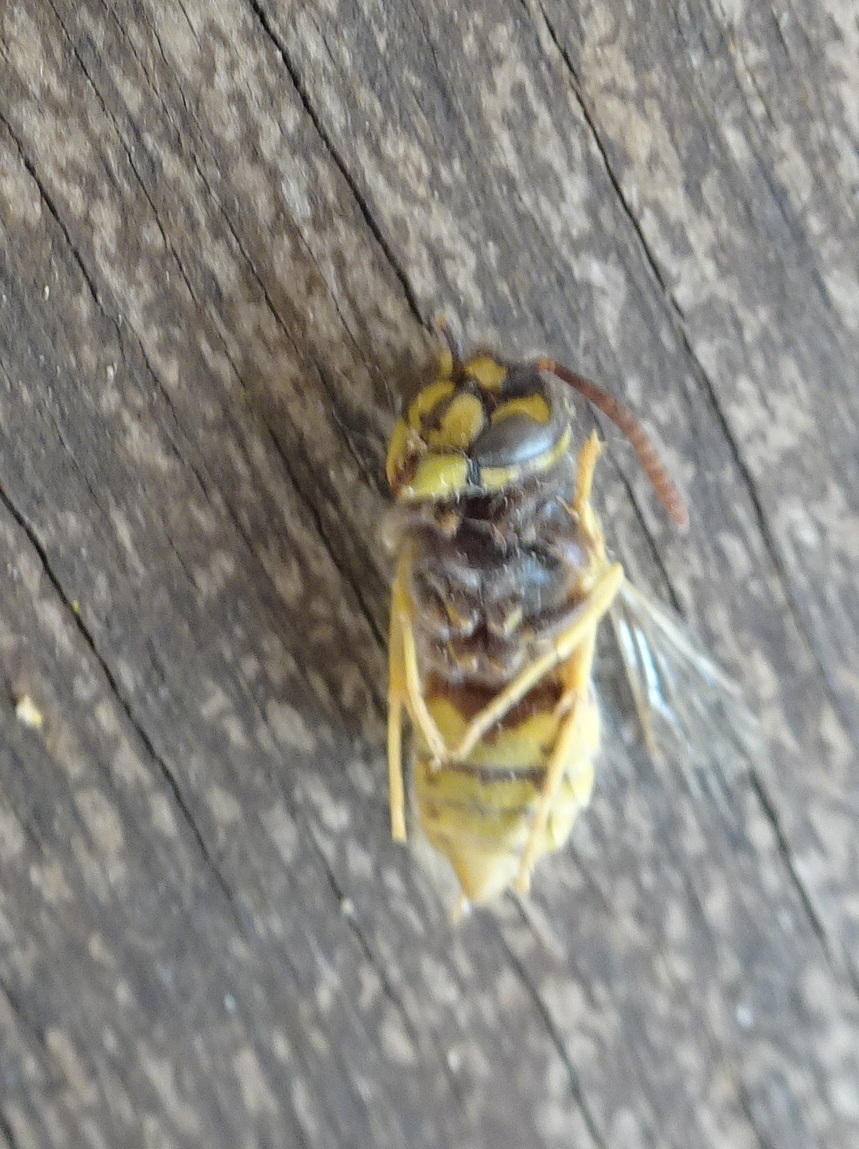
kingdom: Animalia
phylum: Arthropoda
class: Insecta
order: Hymenoptera
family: Vespidae
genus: Vespula
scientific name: Vespula vulgaris
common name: Common wasp
